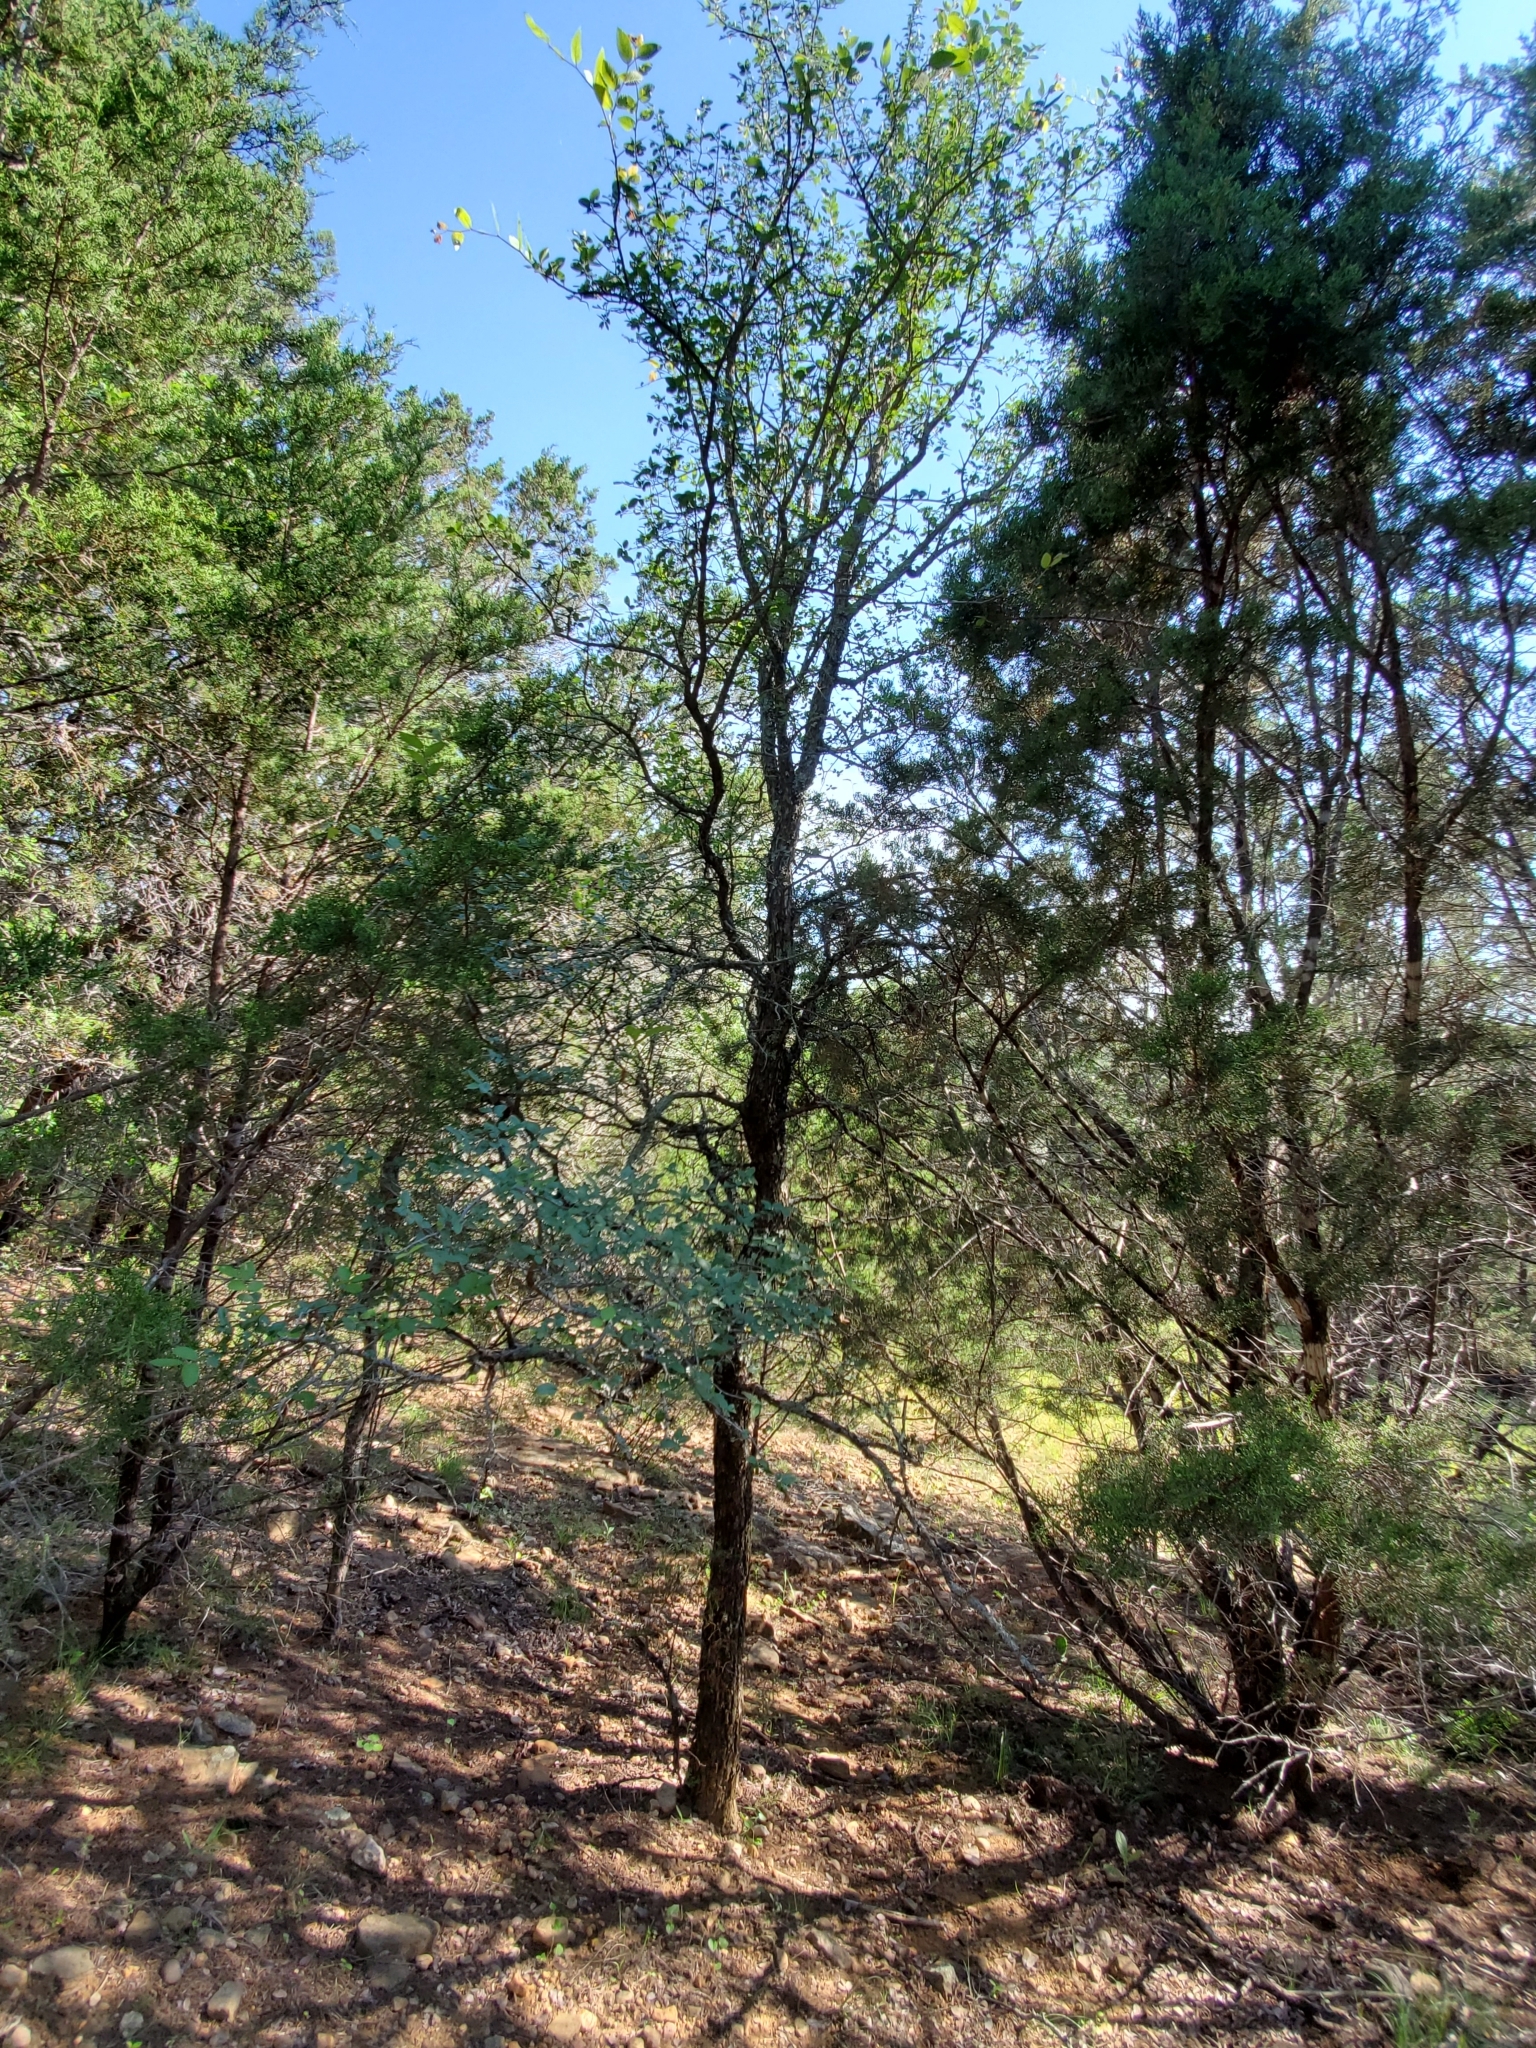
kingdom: Plantae
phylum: Tracheophyta
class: Magnoliopsida
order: Rosales
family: Ulmaceae
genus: Ulmus
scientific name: Ulmus crassifolia
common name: Basket elm
